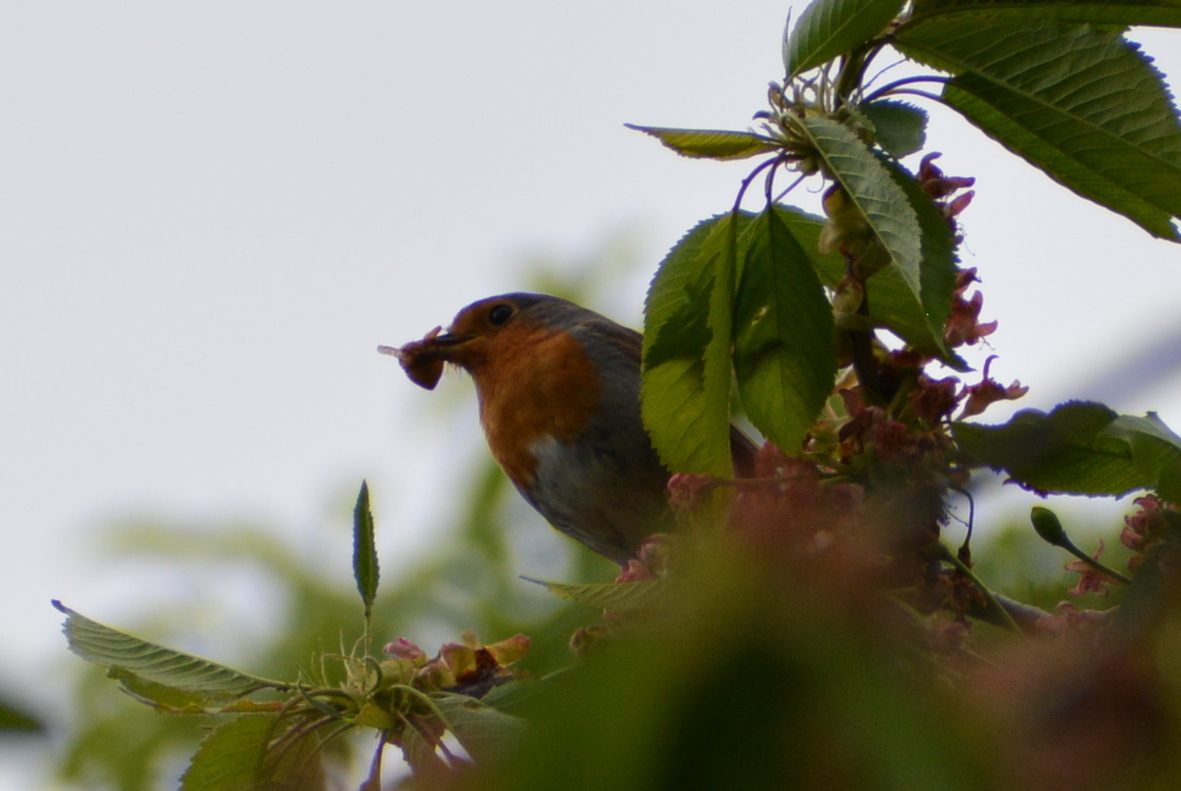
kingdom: Animalia
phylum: Chordata
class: Aves
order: Passeriformes
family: Muscicapidae
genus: Erithacus
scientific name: Erithacus rubecula
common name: European robin
